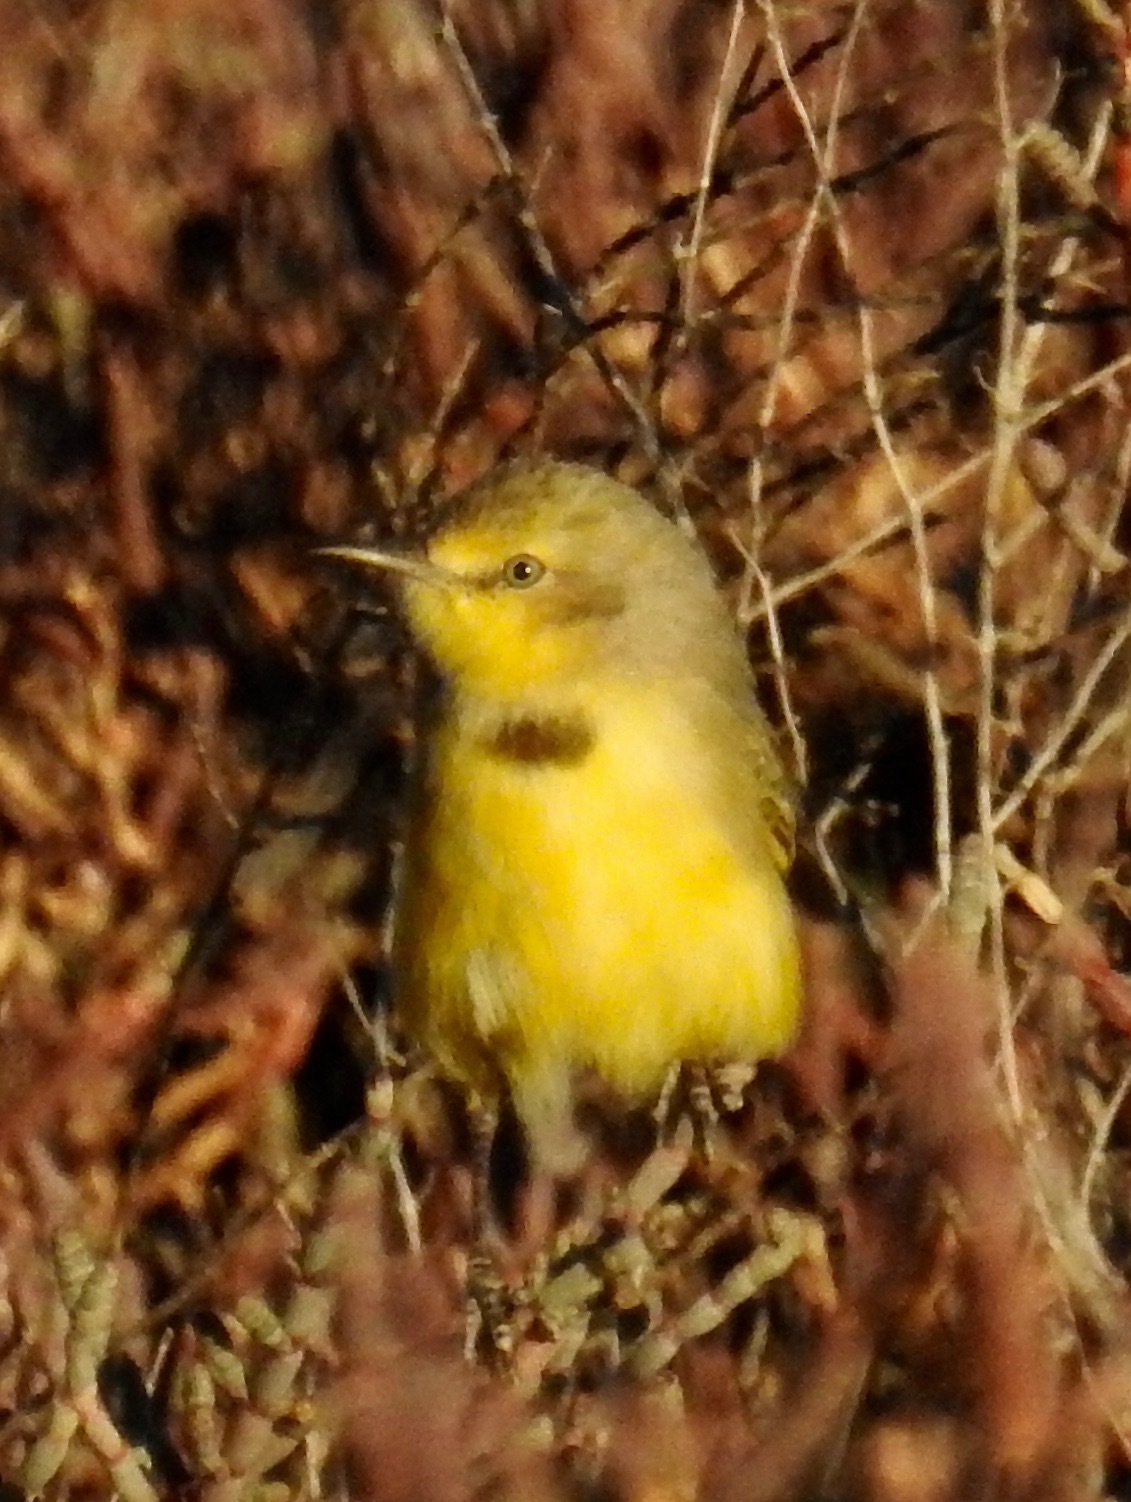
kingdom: Animalia
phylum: Chordata
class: Aves
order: Passeriformes
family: Meliphagidae
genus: Epthianura
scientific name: Epthianura crocea
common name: Yellow chat
